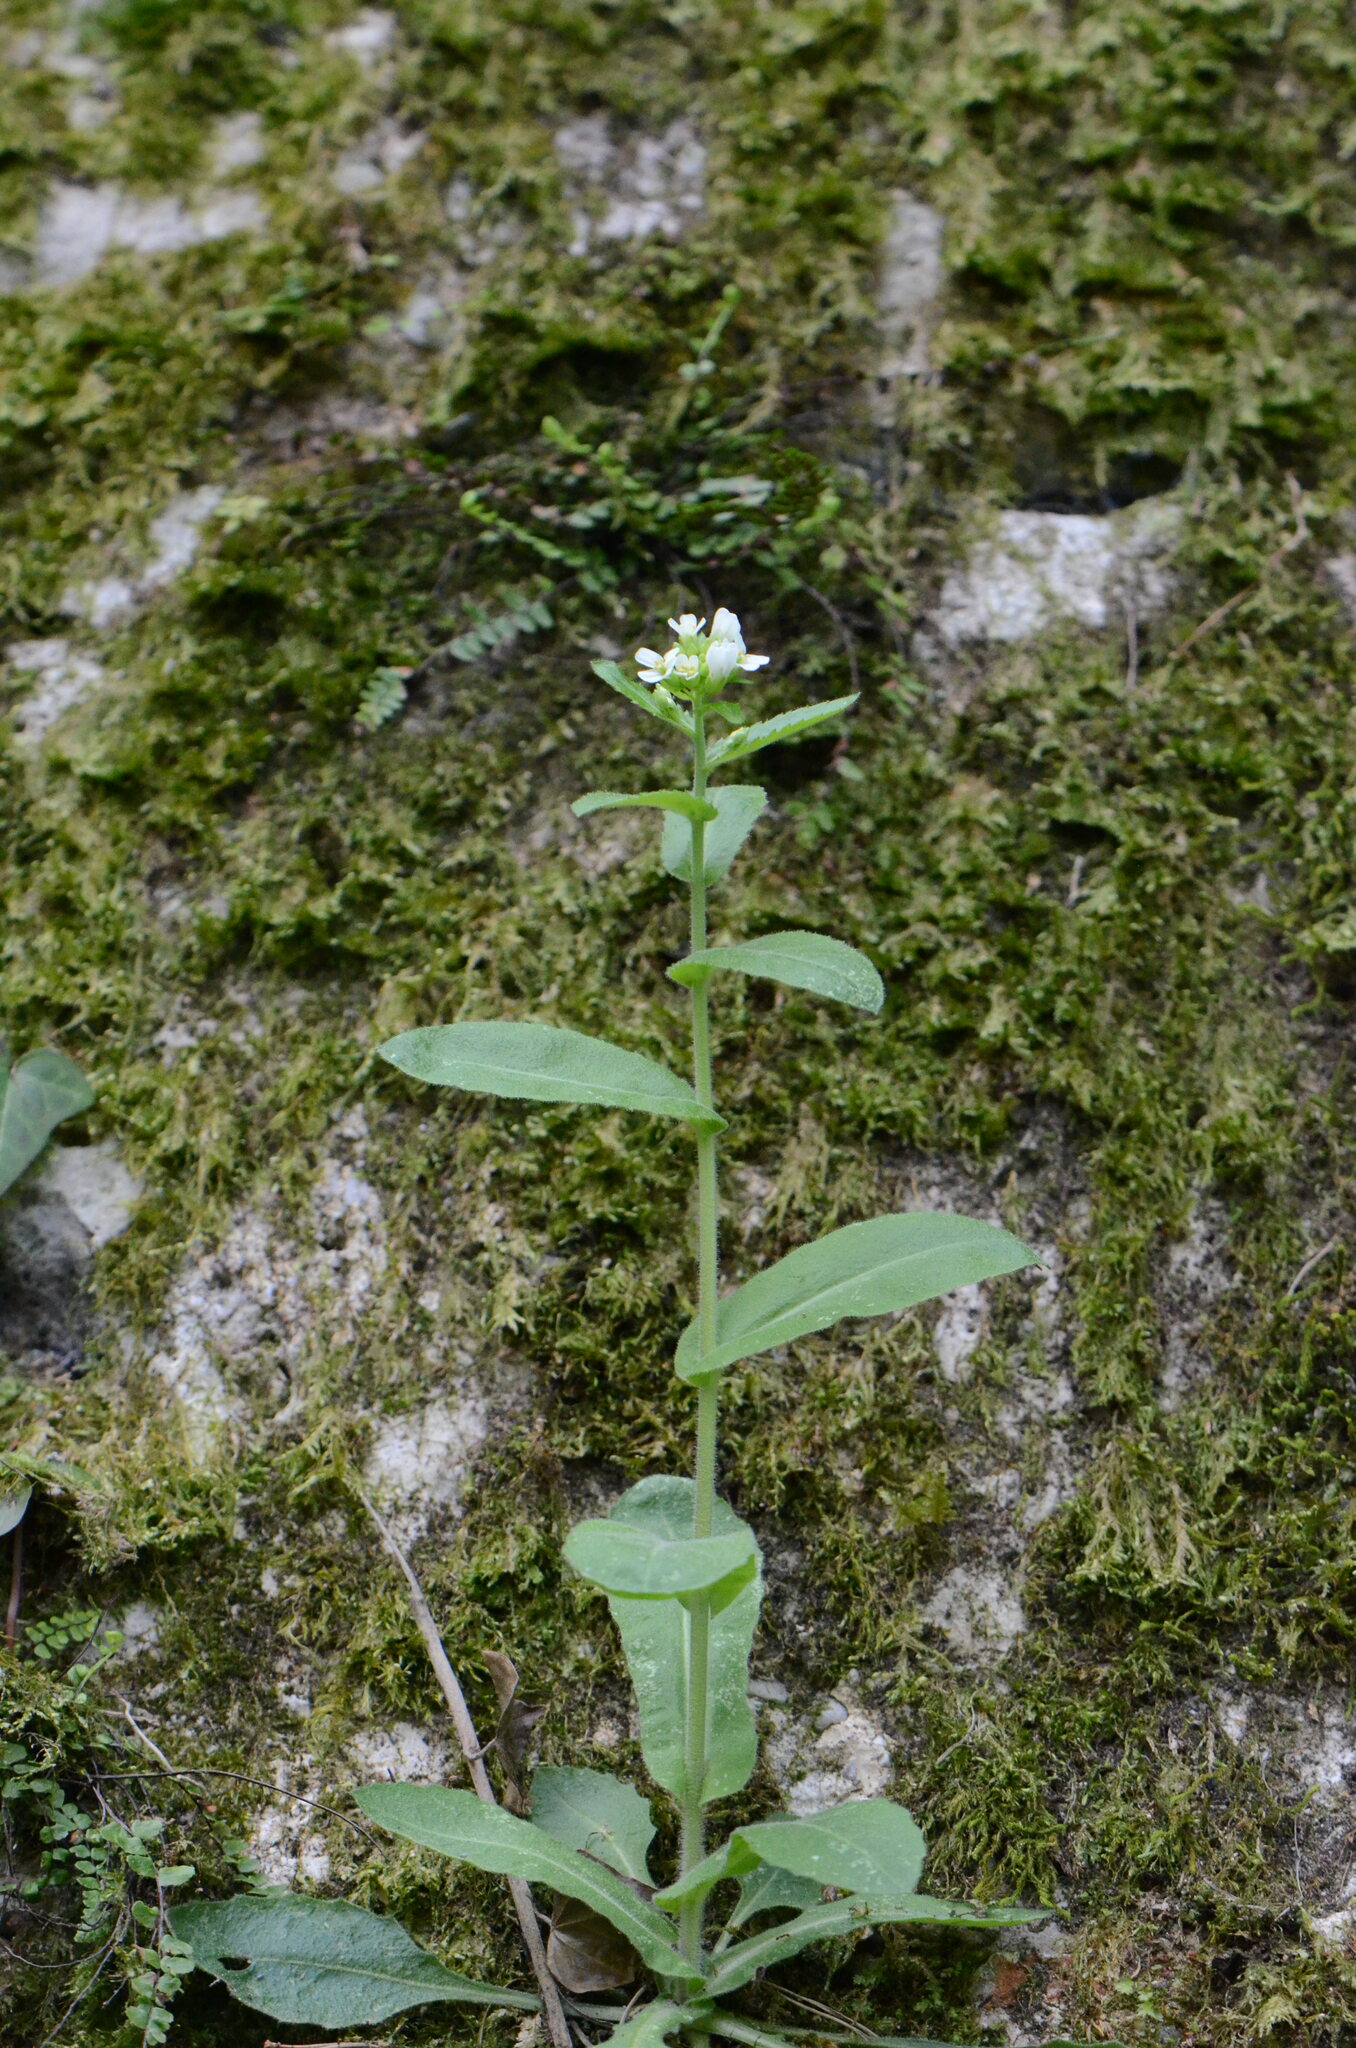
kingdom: Plantae
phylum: Tracheophyta
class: Magnoliopsida
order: Brassicales
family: Brassicaceae
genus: Pseudoturritis
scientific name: Pseudoturritis turrita
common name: Tower cress
